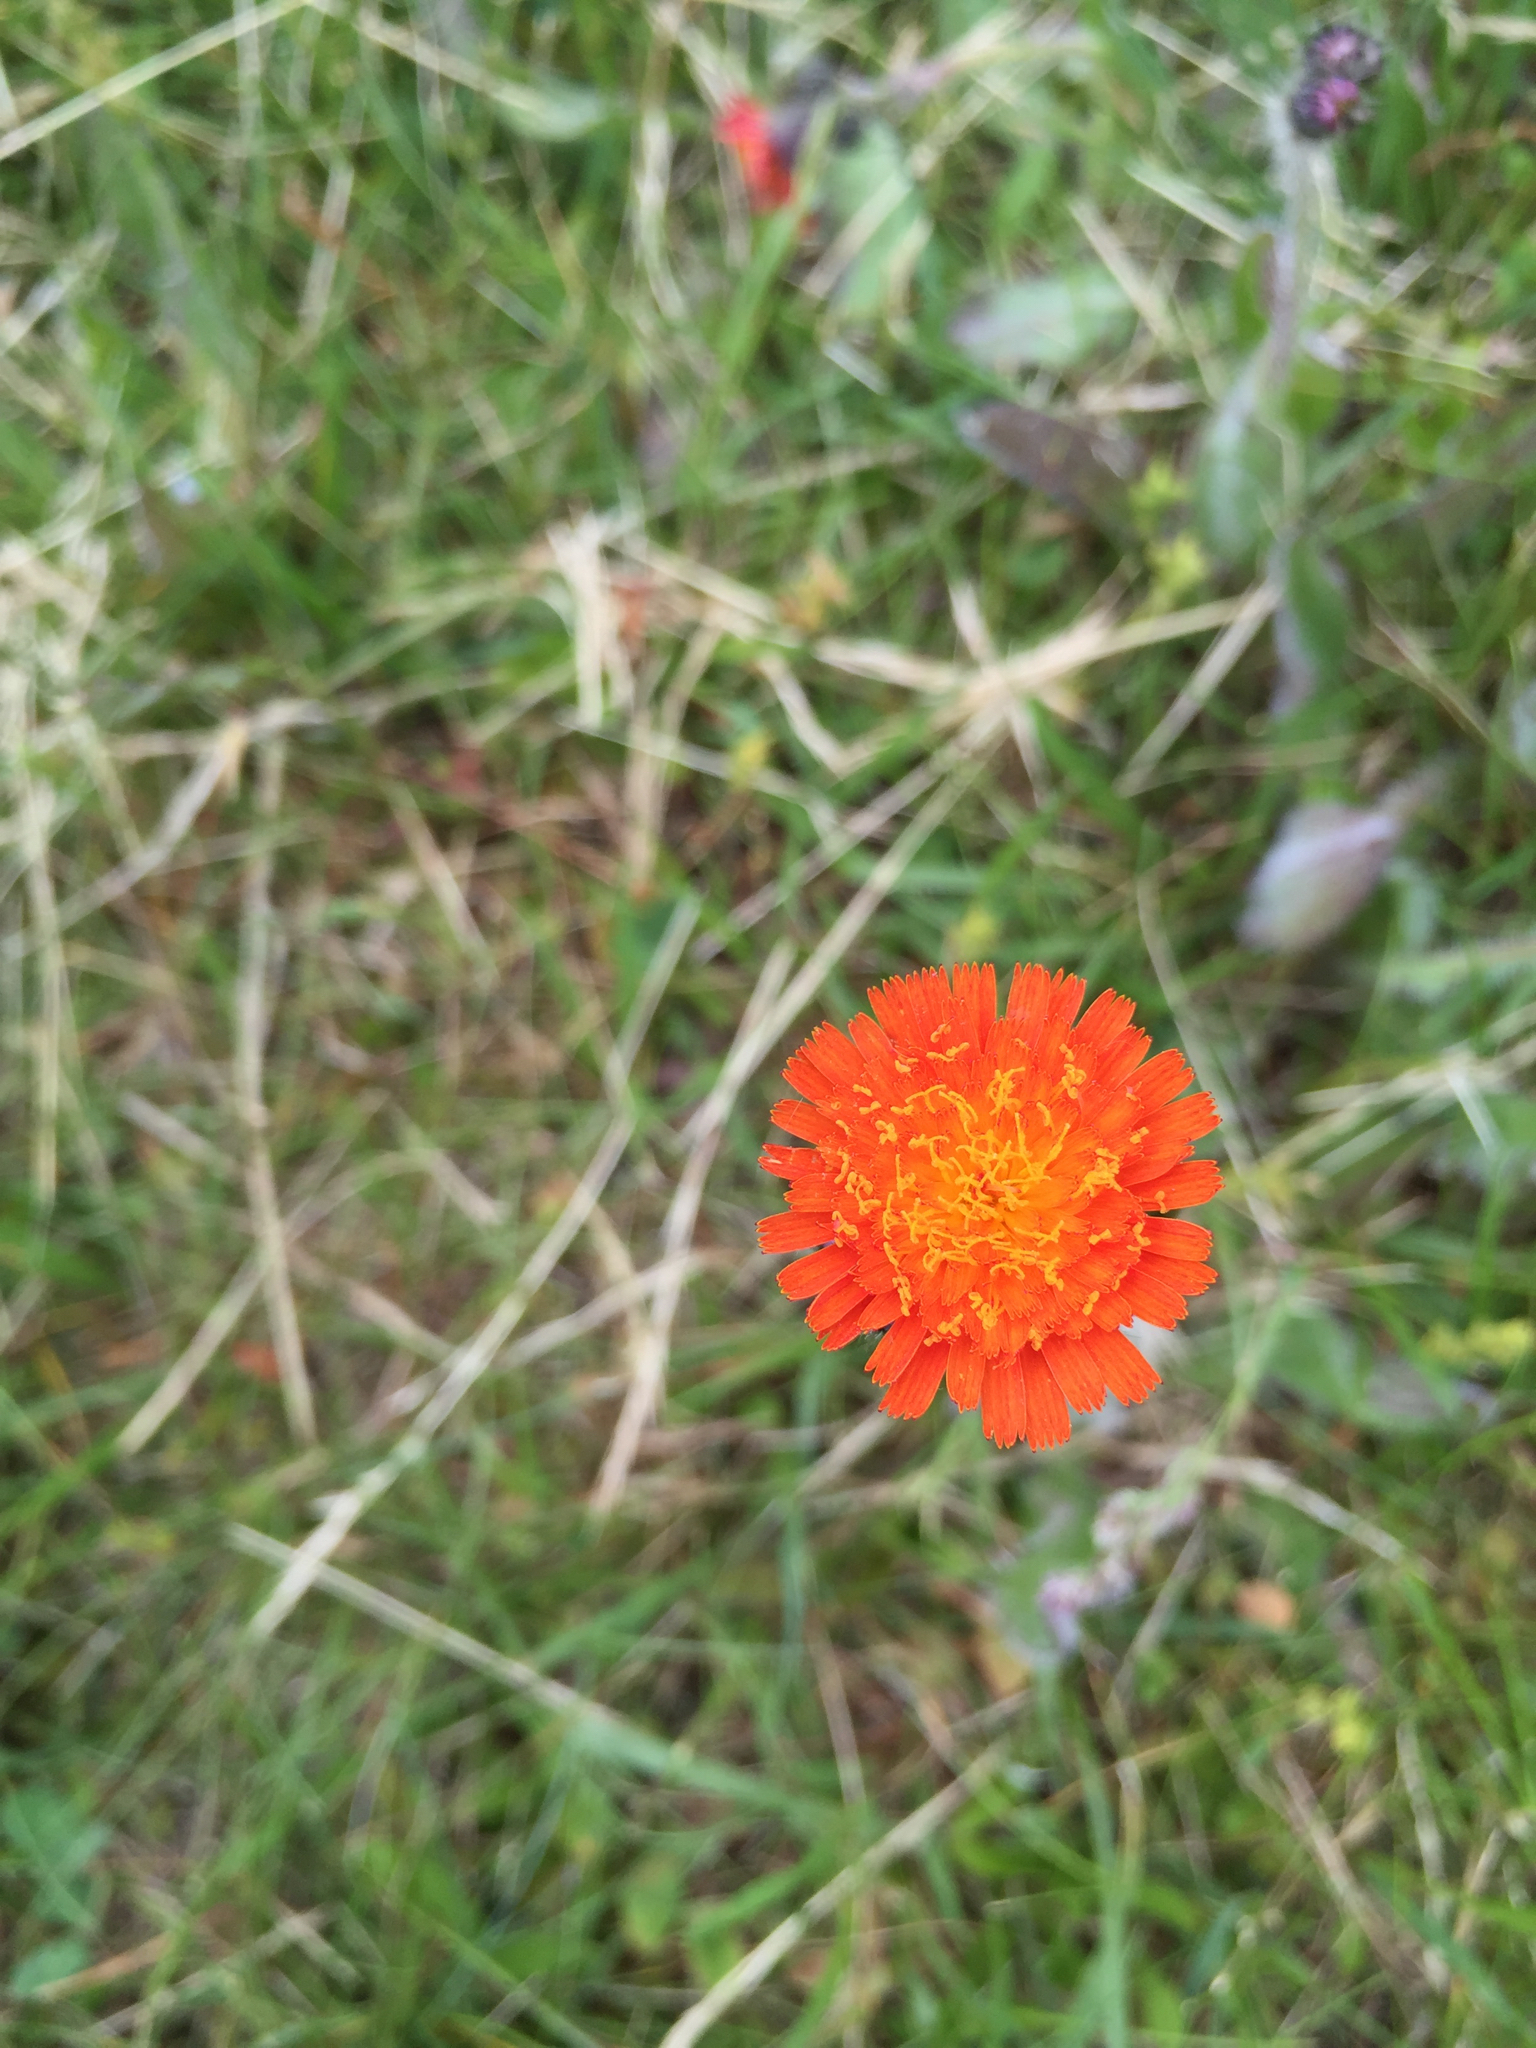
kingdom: Plantae
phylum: Tracheophyta
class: Magnoliopsida
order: Asterales
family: Asteraceae
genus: Pilosella
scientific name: Pilosella aurantiaca
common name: Fox-and-cubs
